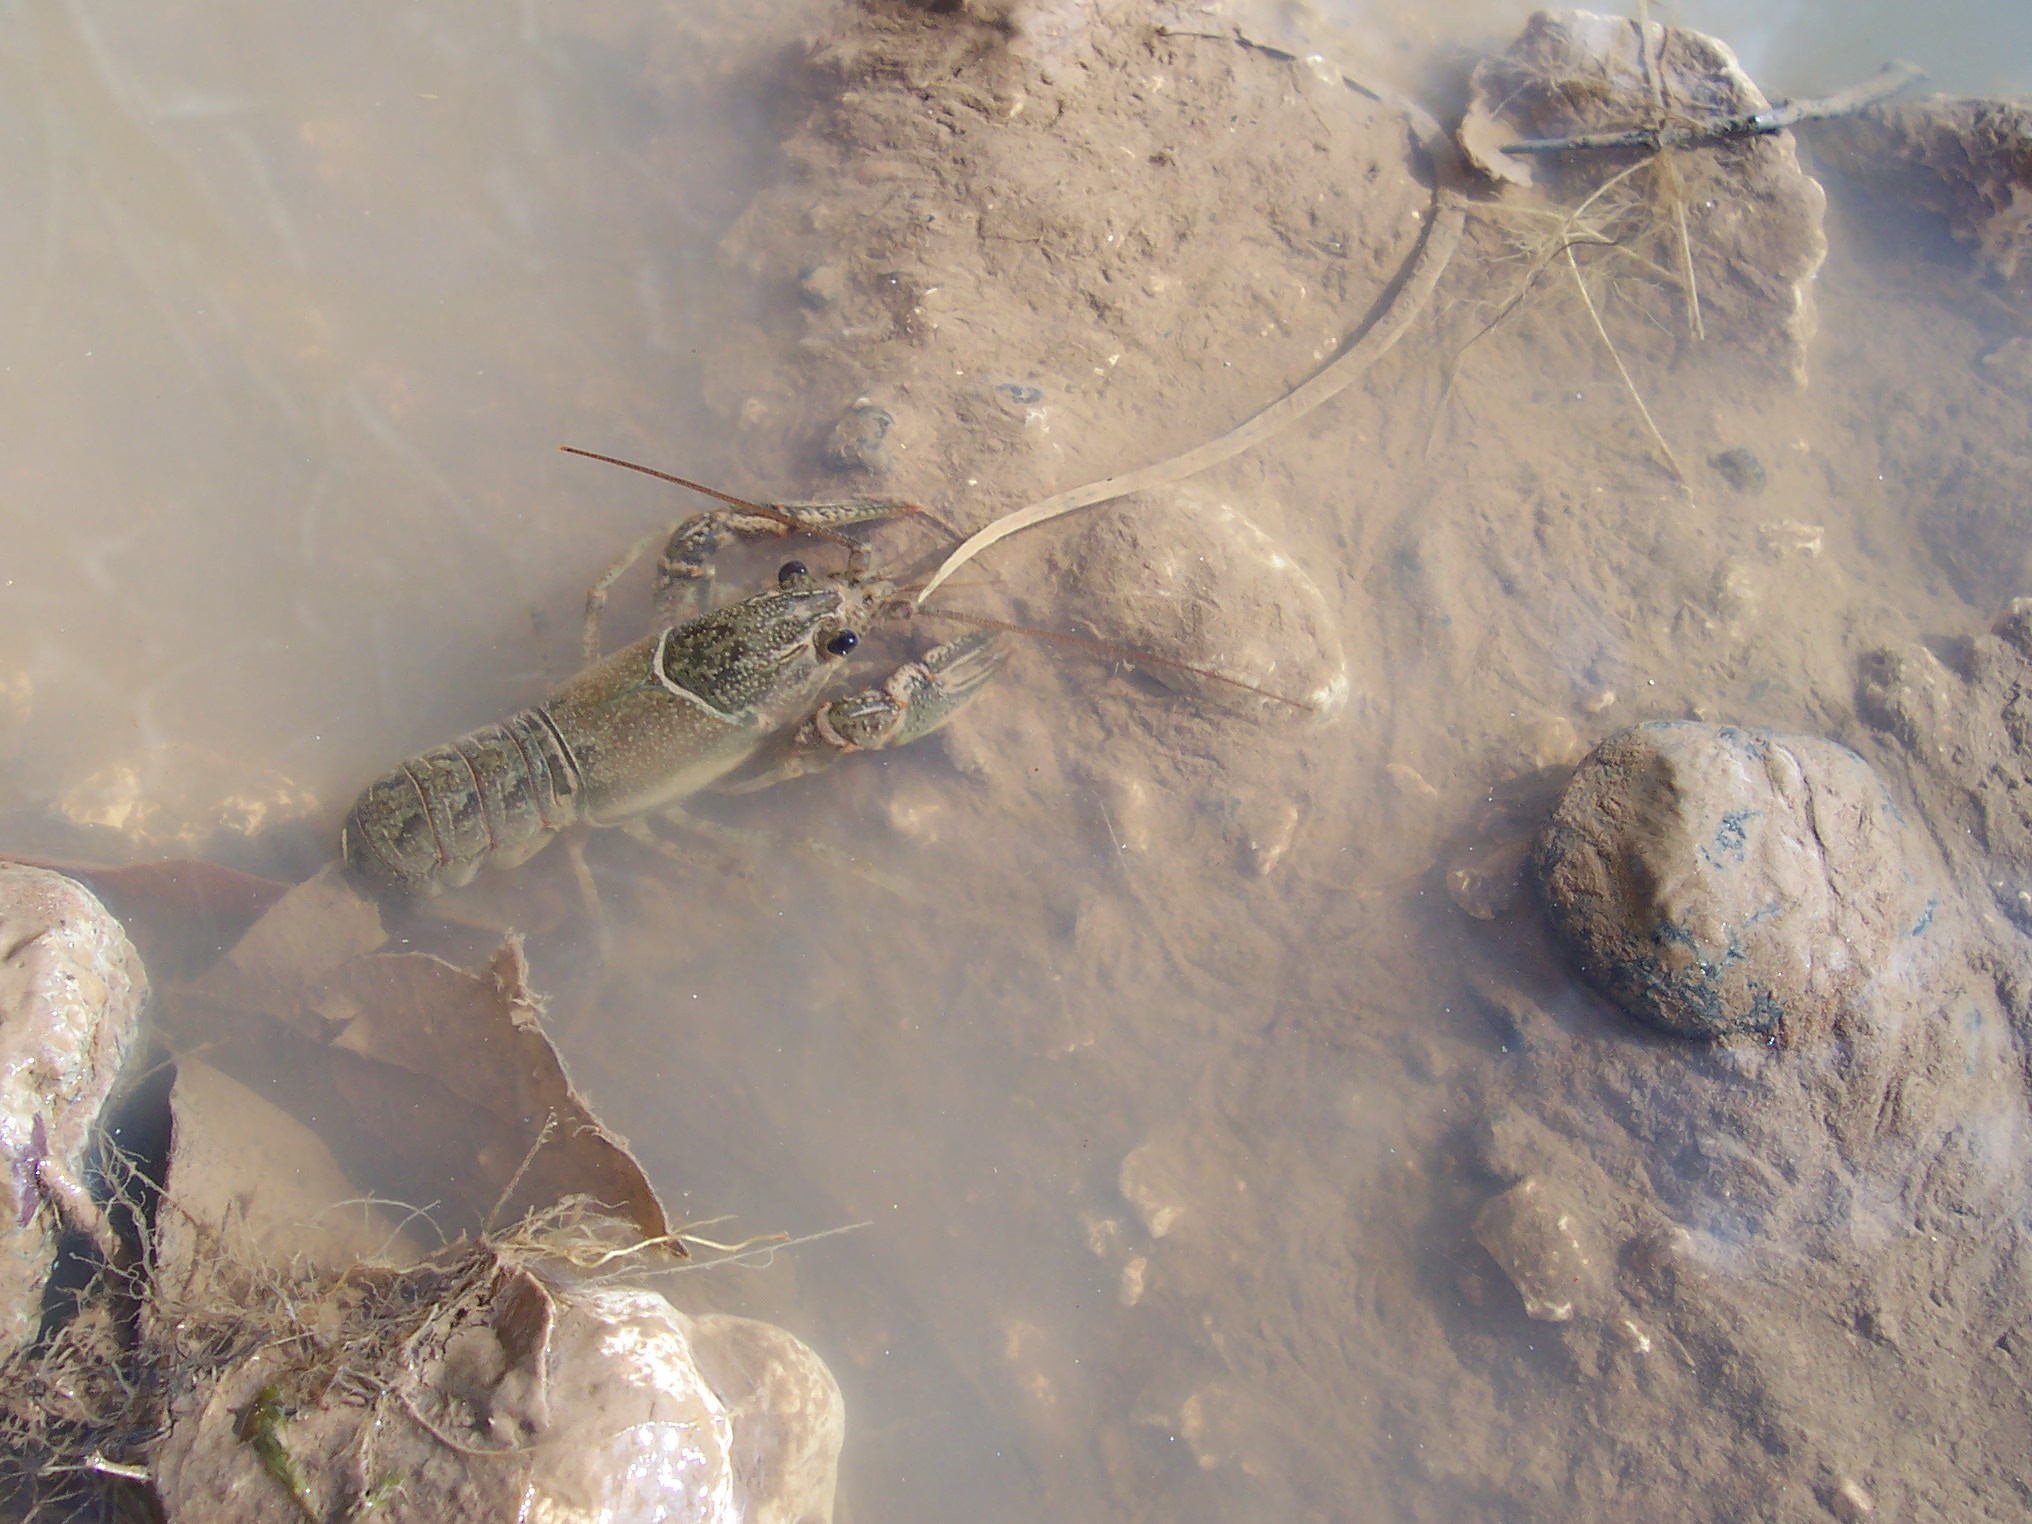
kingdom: Animalia
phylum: Arthropoda
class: Malacostraca
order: Decapoda
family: Cambaridae
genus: Faxonius
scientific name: Faxonius virilis
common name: Virile crayfish
